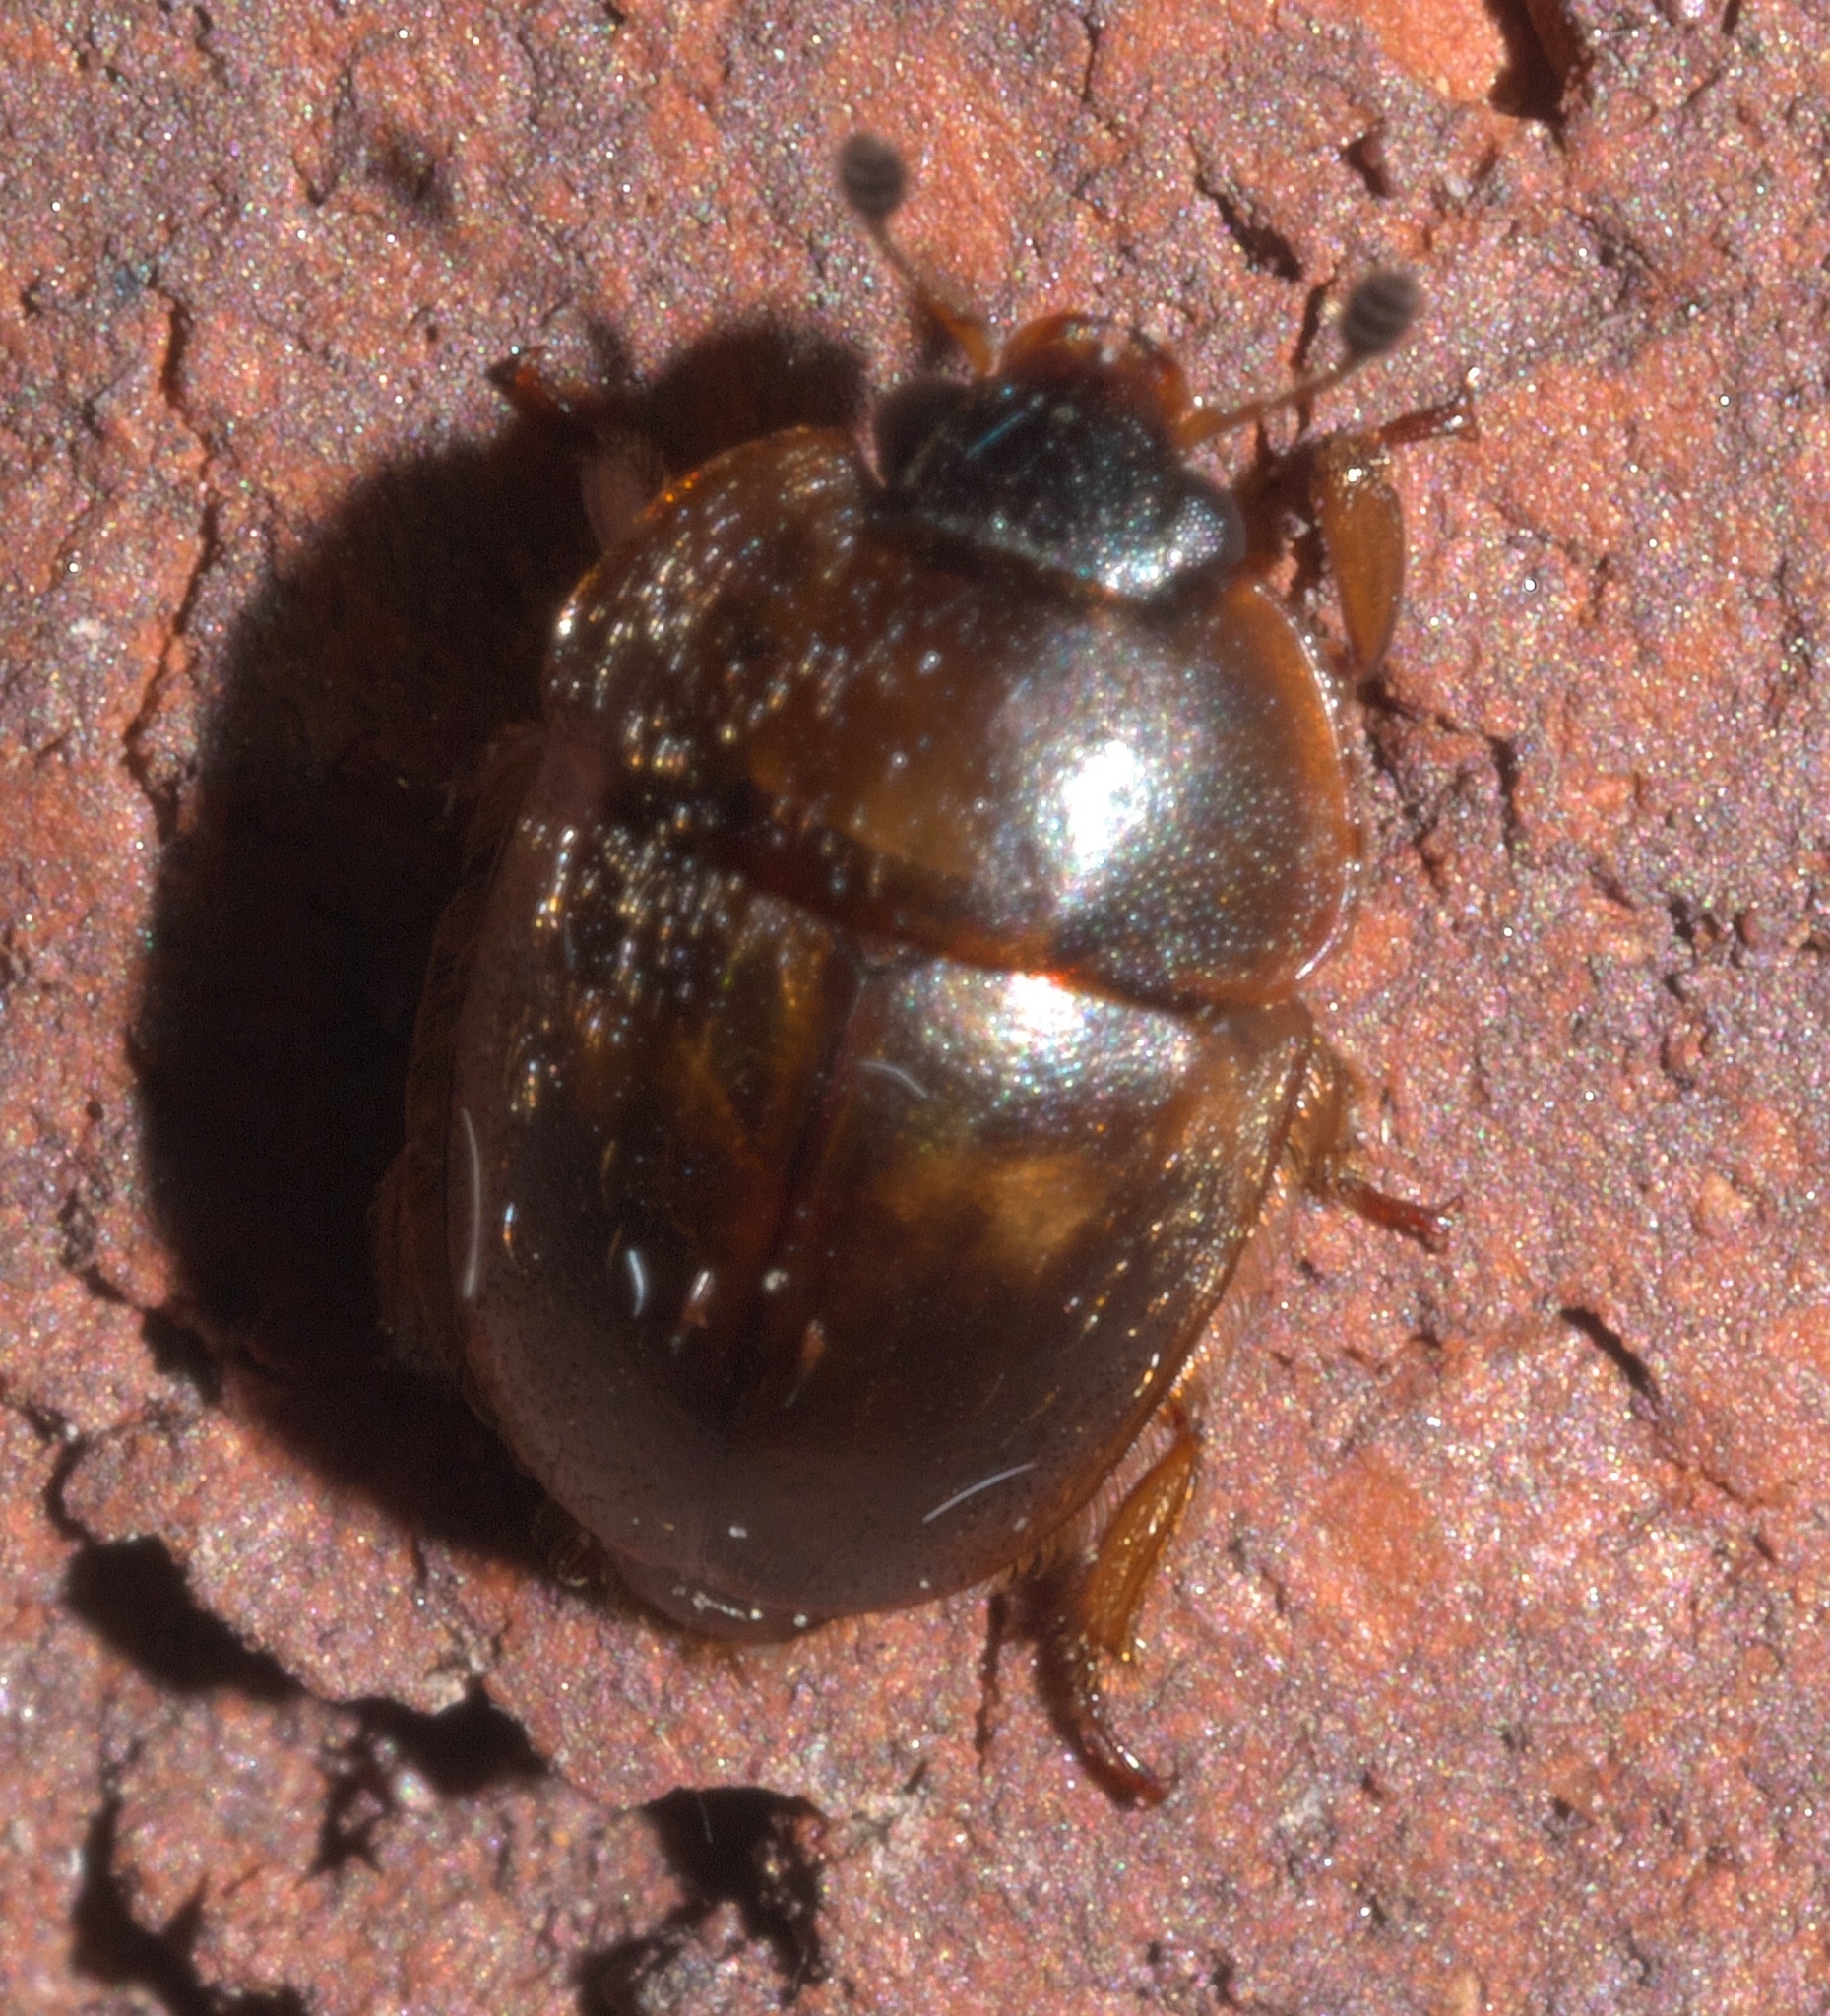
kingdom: Animalia
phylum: Arthropoda
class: Insecta
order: Coleoptera
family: Nitidulidae
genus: Amphicrossus
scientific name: Amphicrossus ciliatus
